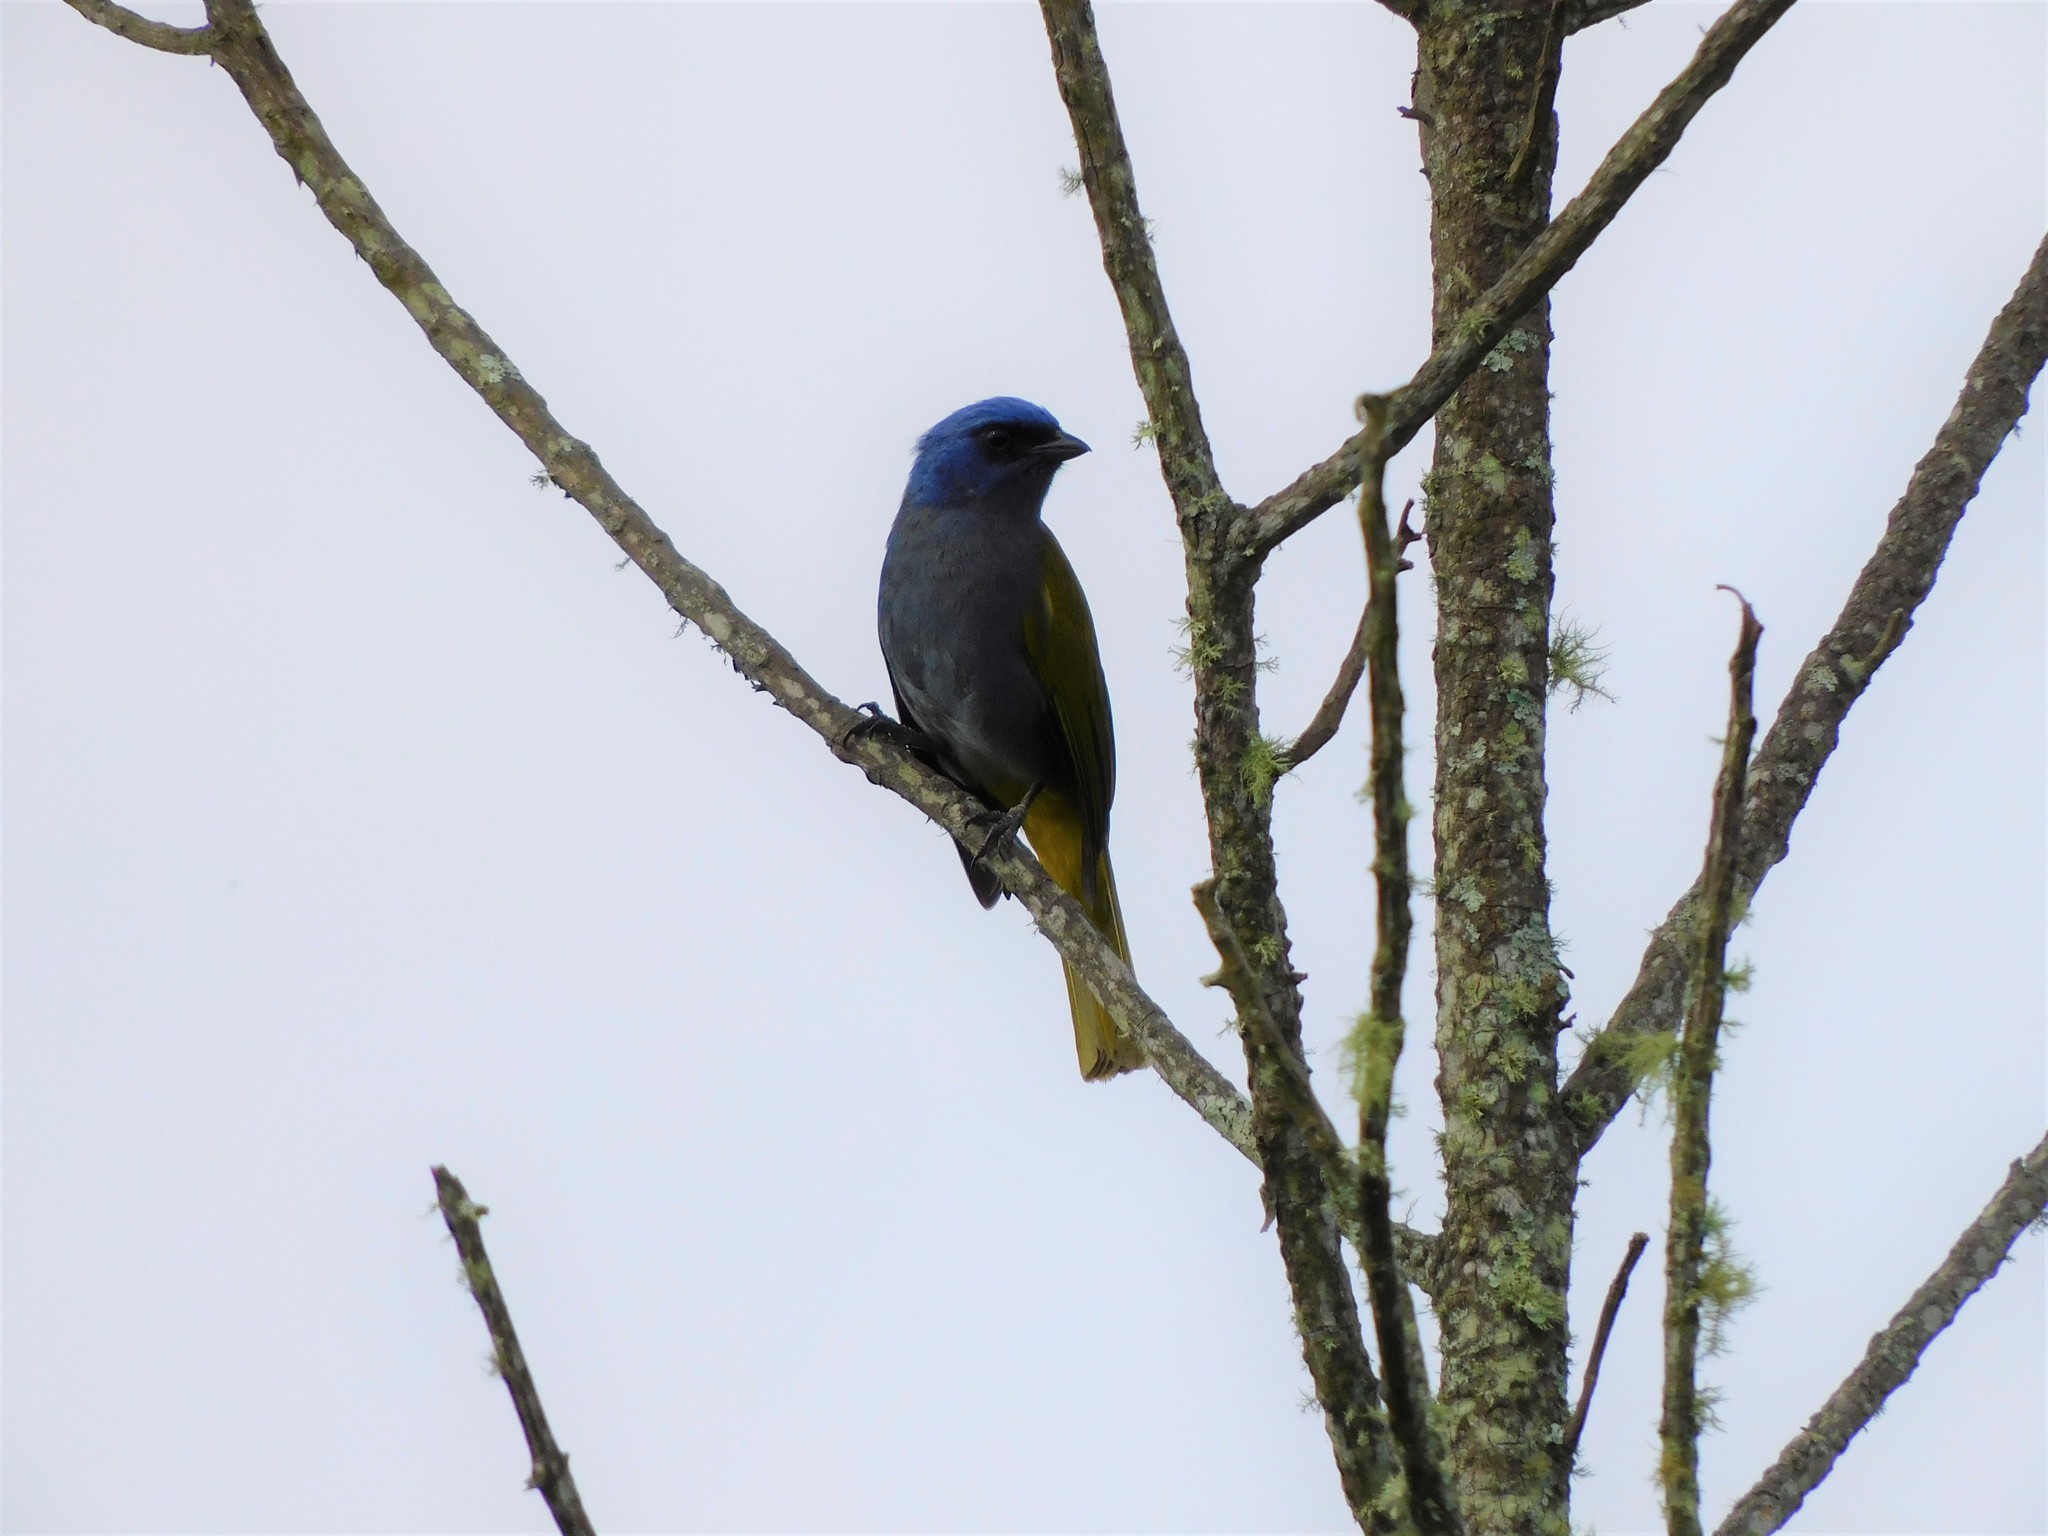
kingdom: Animalia
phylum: Chordata
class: Aves
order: Passeriformes
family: Thraupidae
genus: Sporathraupis
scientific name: Sporathraupis cyanocephala
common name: Blue-capped tanager
